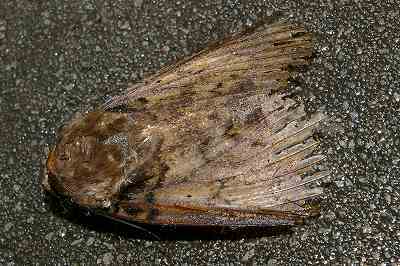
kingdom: Animalia
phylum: Arthropoda
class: Insecta
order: Lepidoptera
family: Erebidae
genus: Arcte
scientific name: Arcte coerula
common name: Ramie moth
